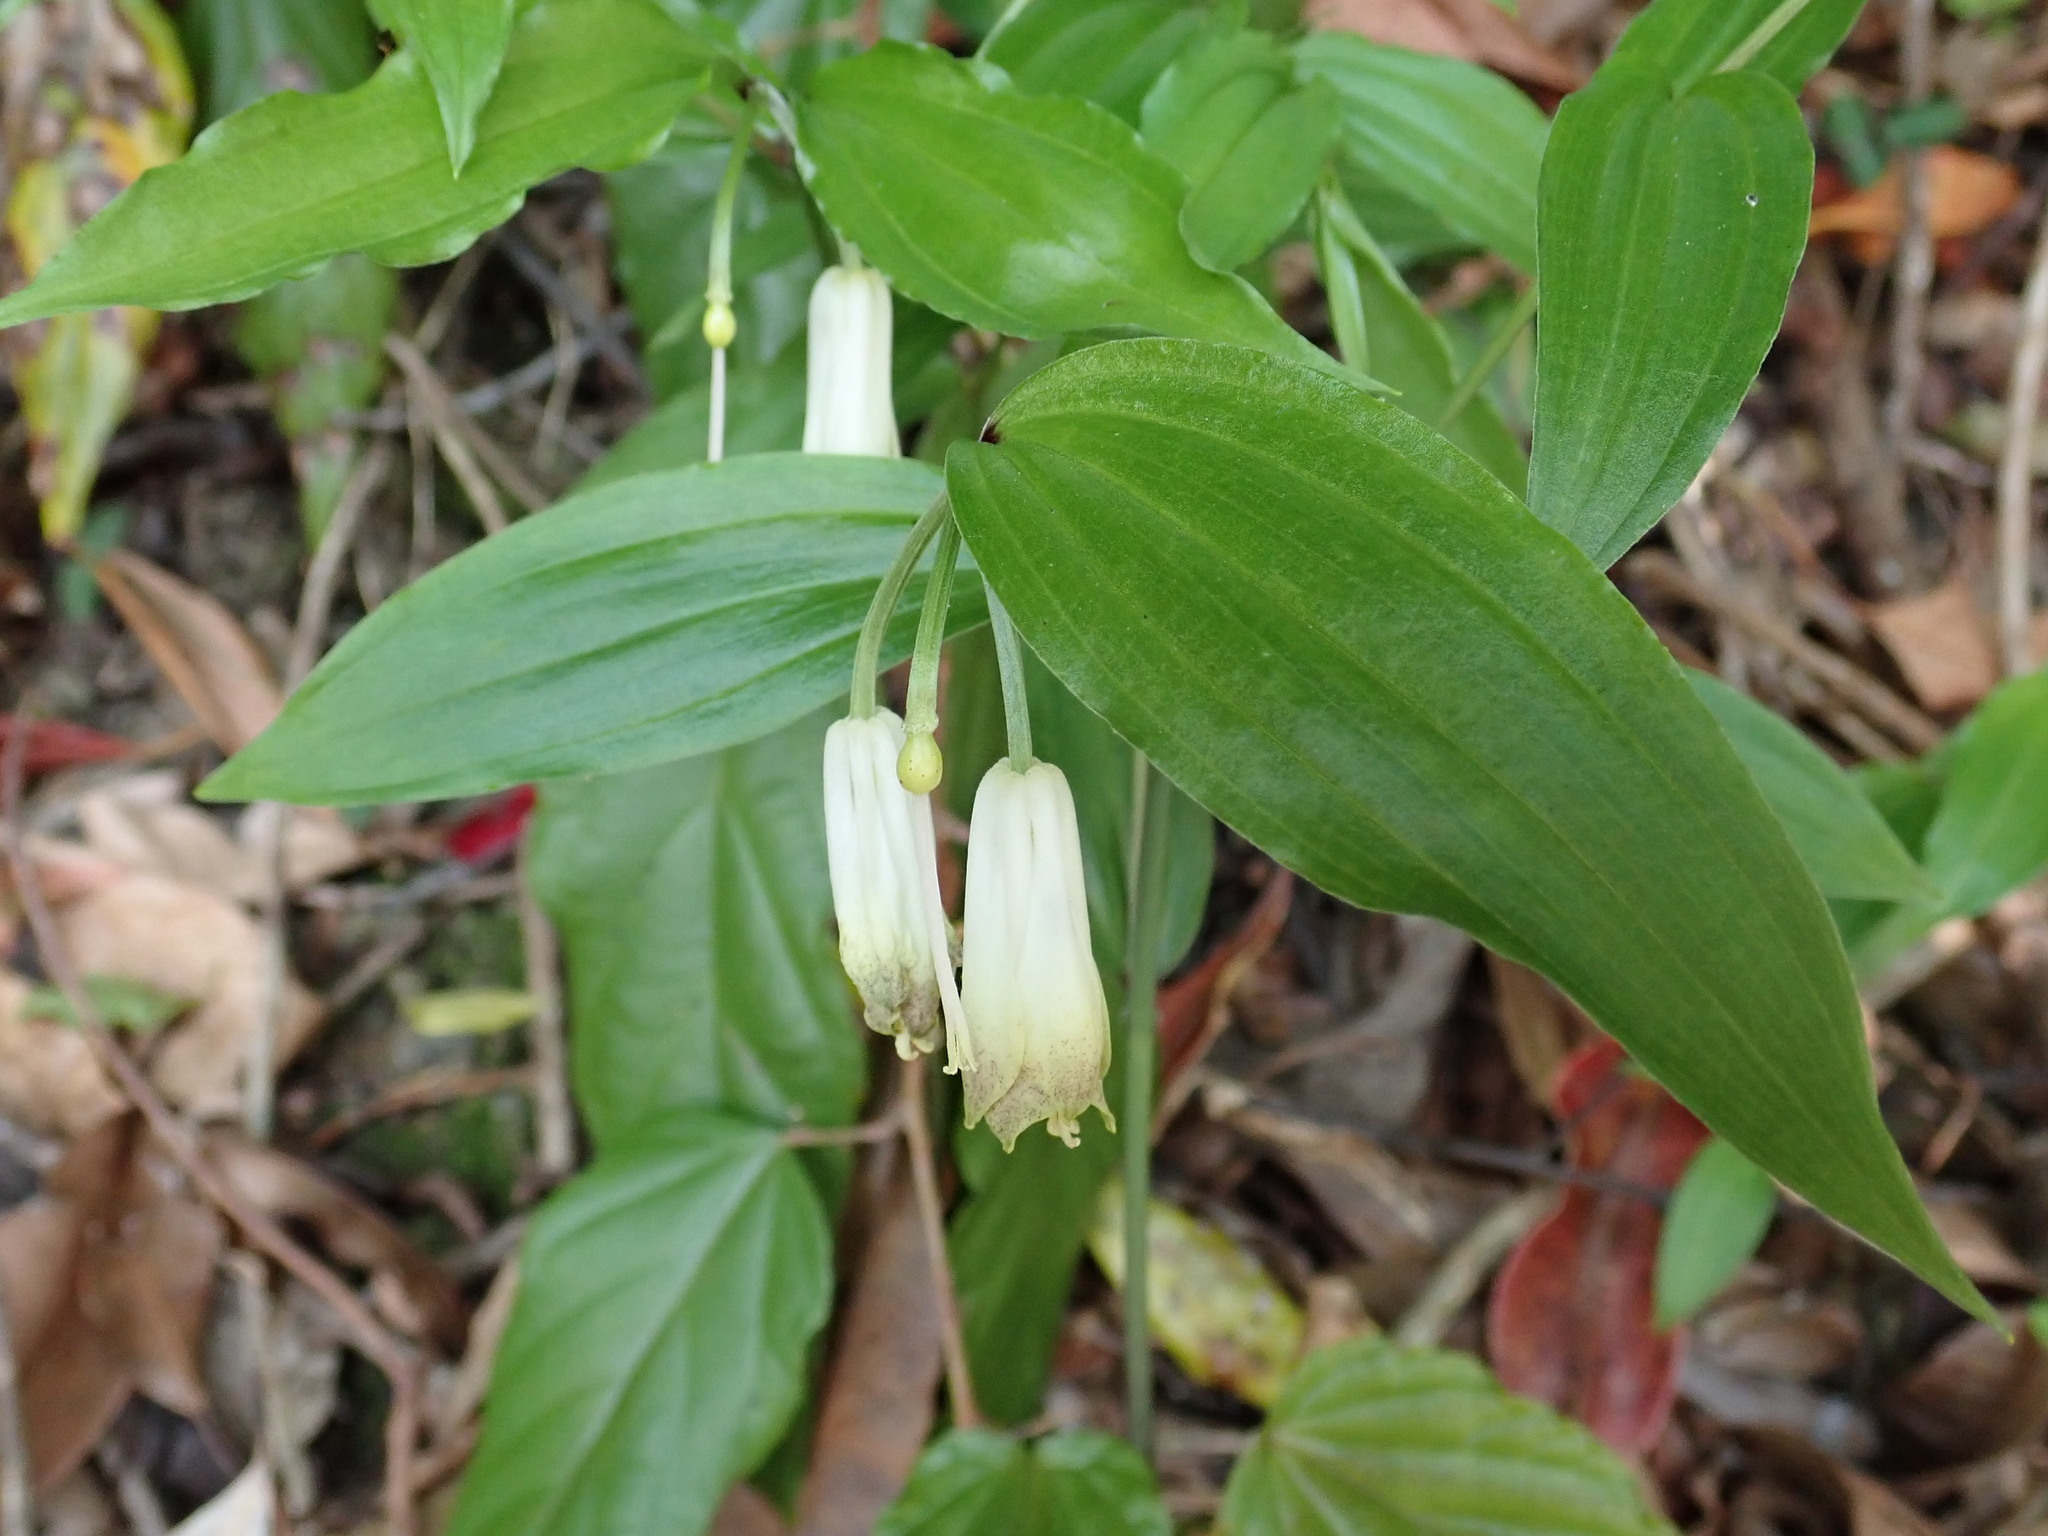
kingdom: Plantae
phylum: Tracheophyta
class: Liliopsida
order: Liliales
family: Colchicaceae
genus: Disporum
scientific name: Disporum sessile
